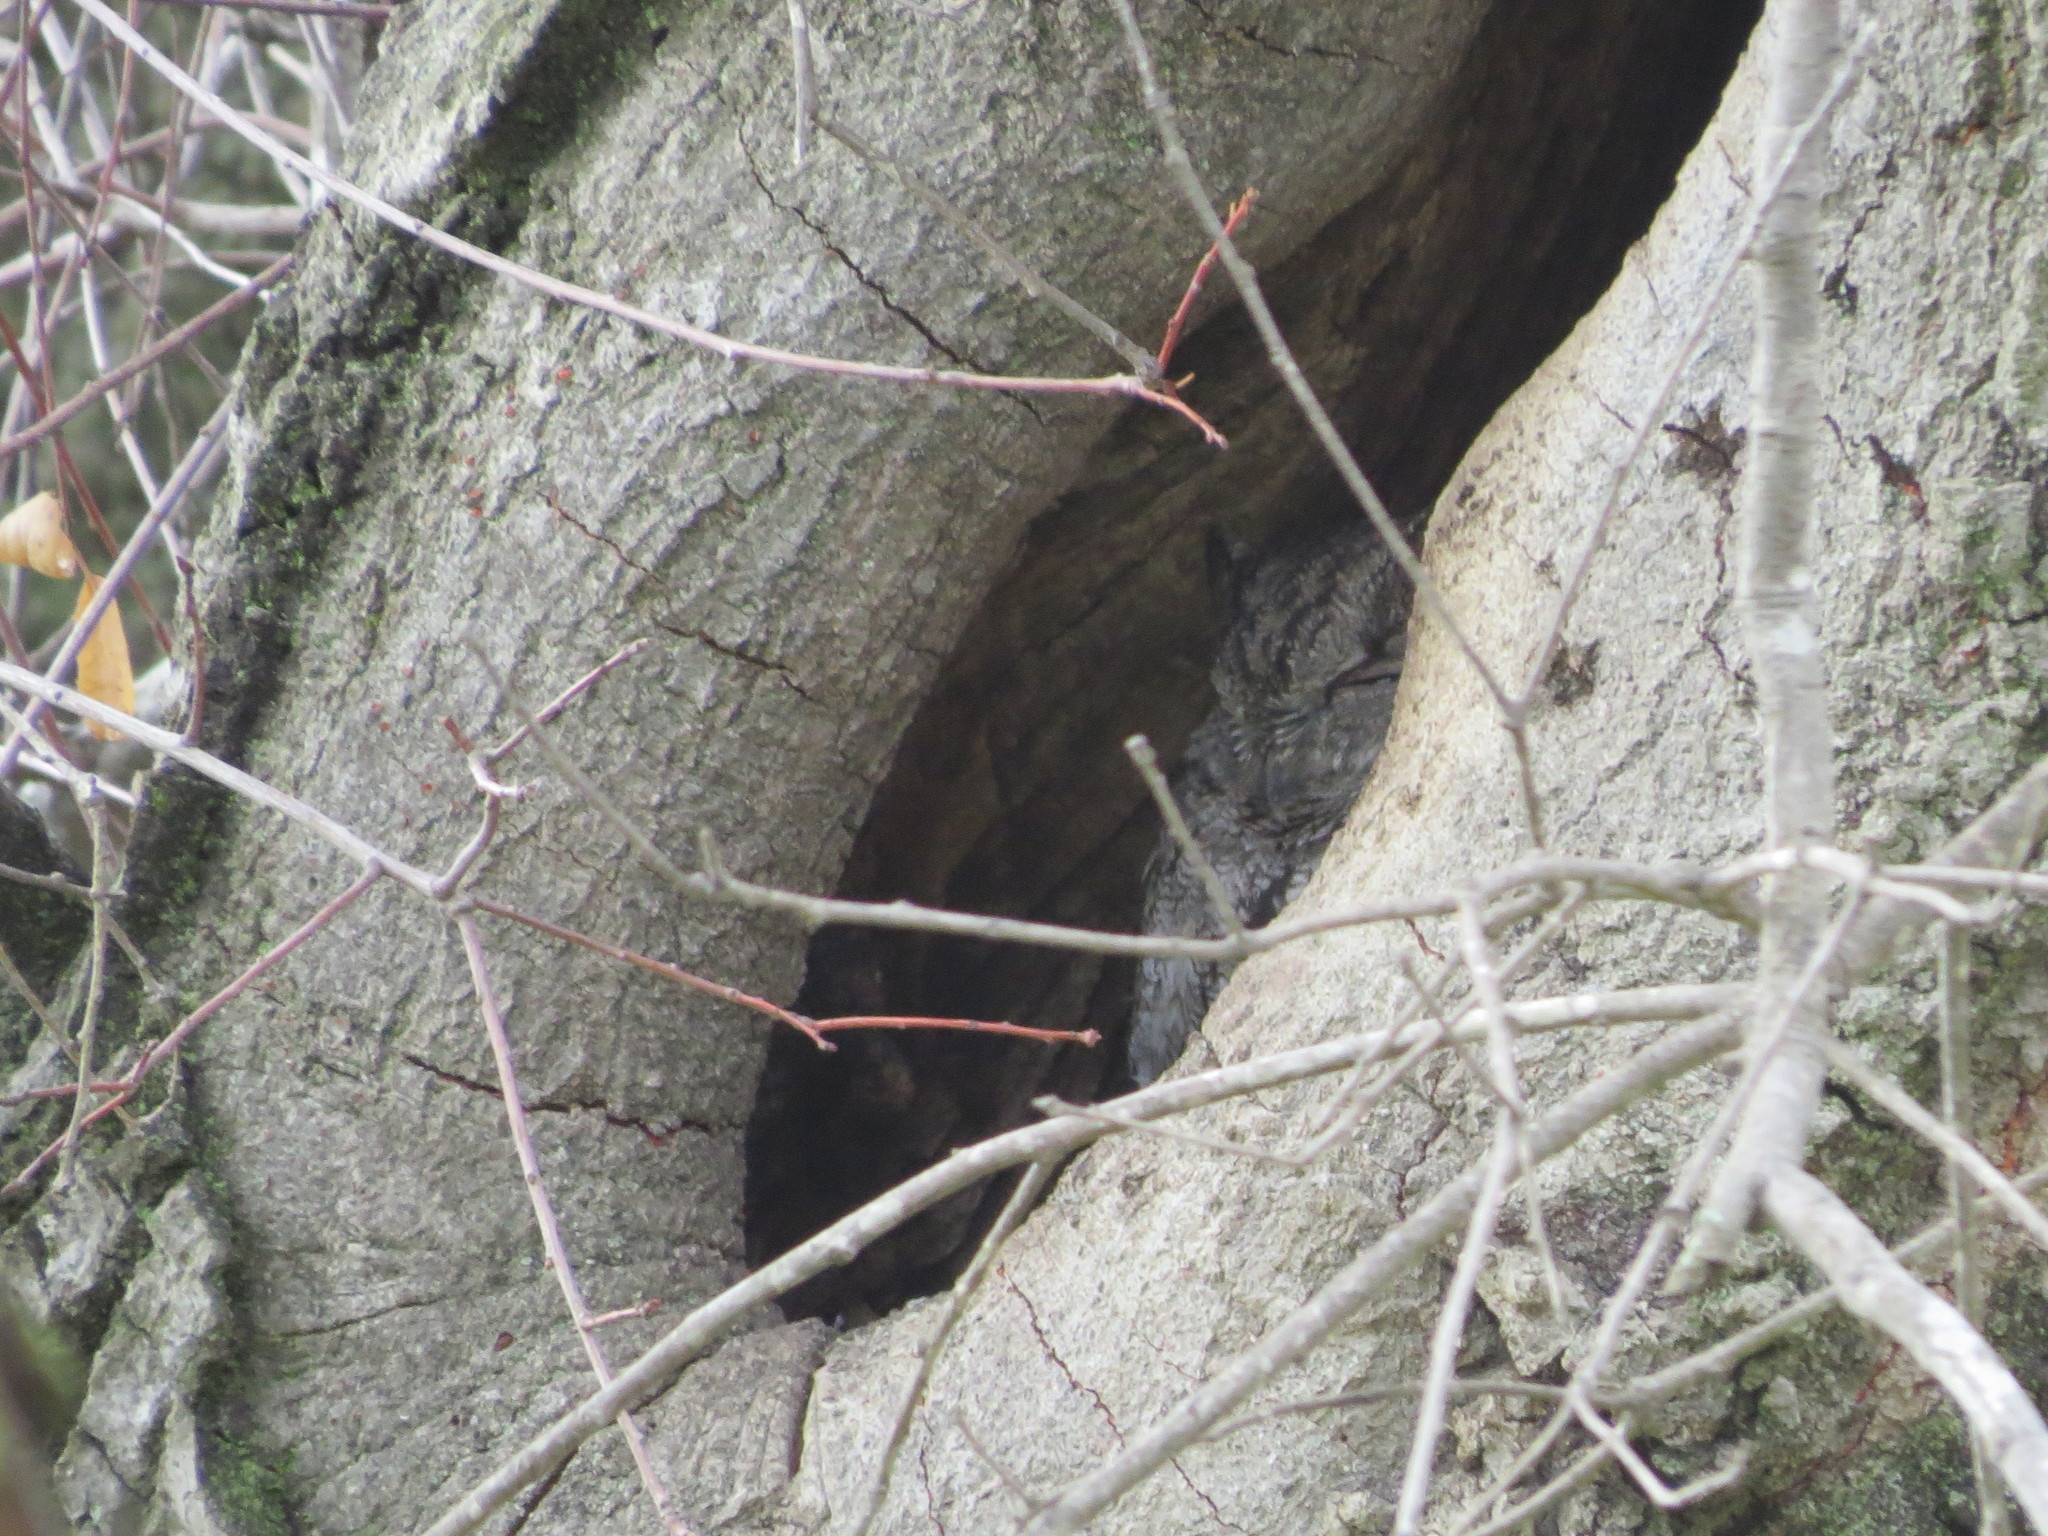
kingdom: Animalia
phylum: Chordata
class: Aves
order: Strigiformes
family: Strigidae
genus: Megascops
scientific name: Megascops kennicottii
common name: Western screech-owl
